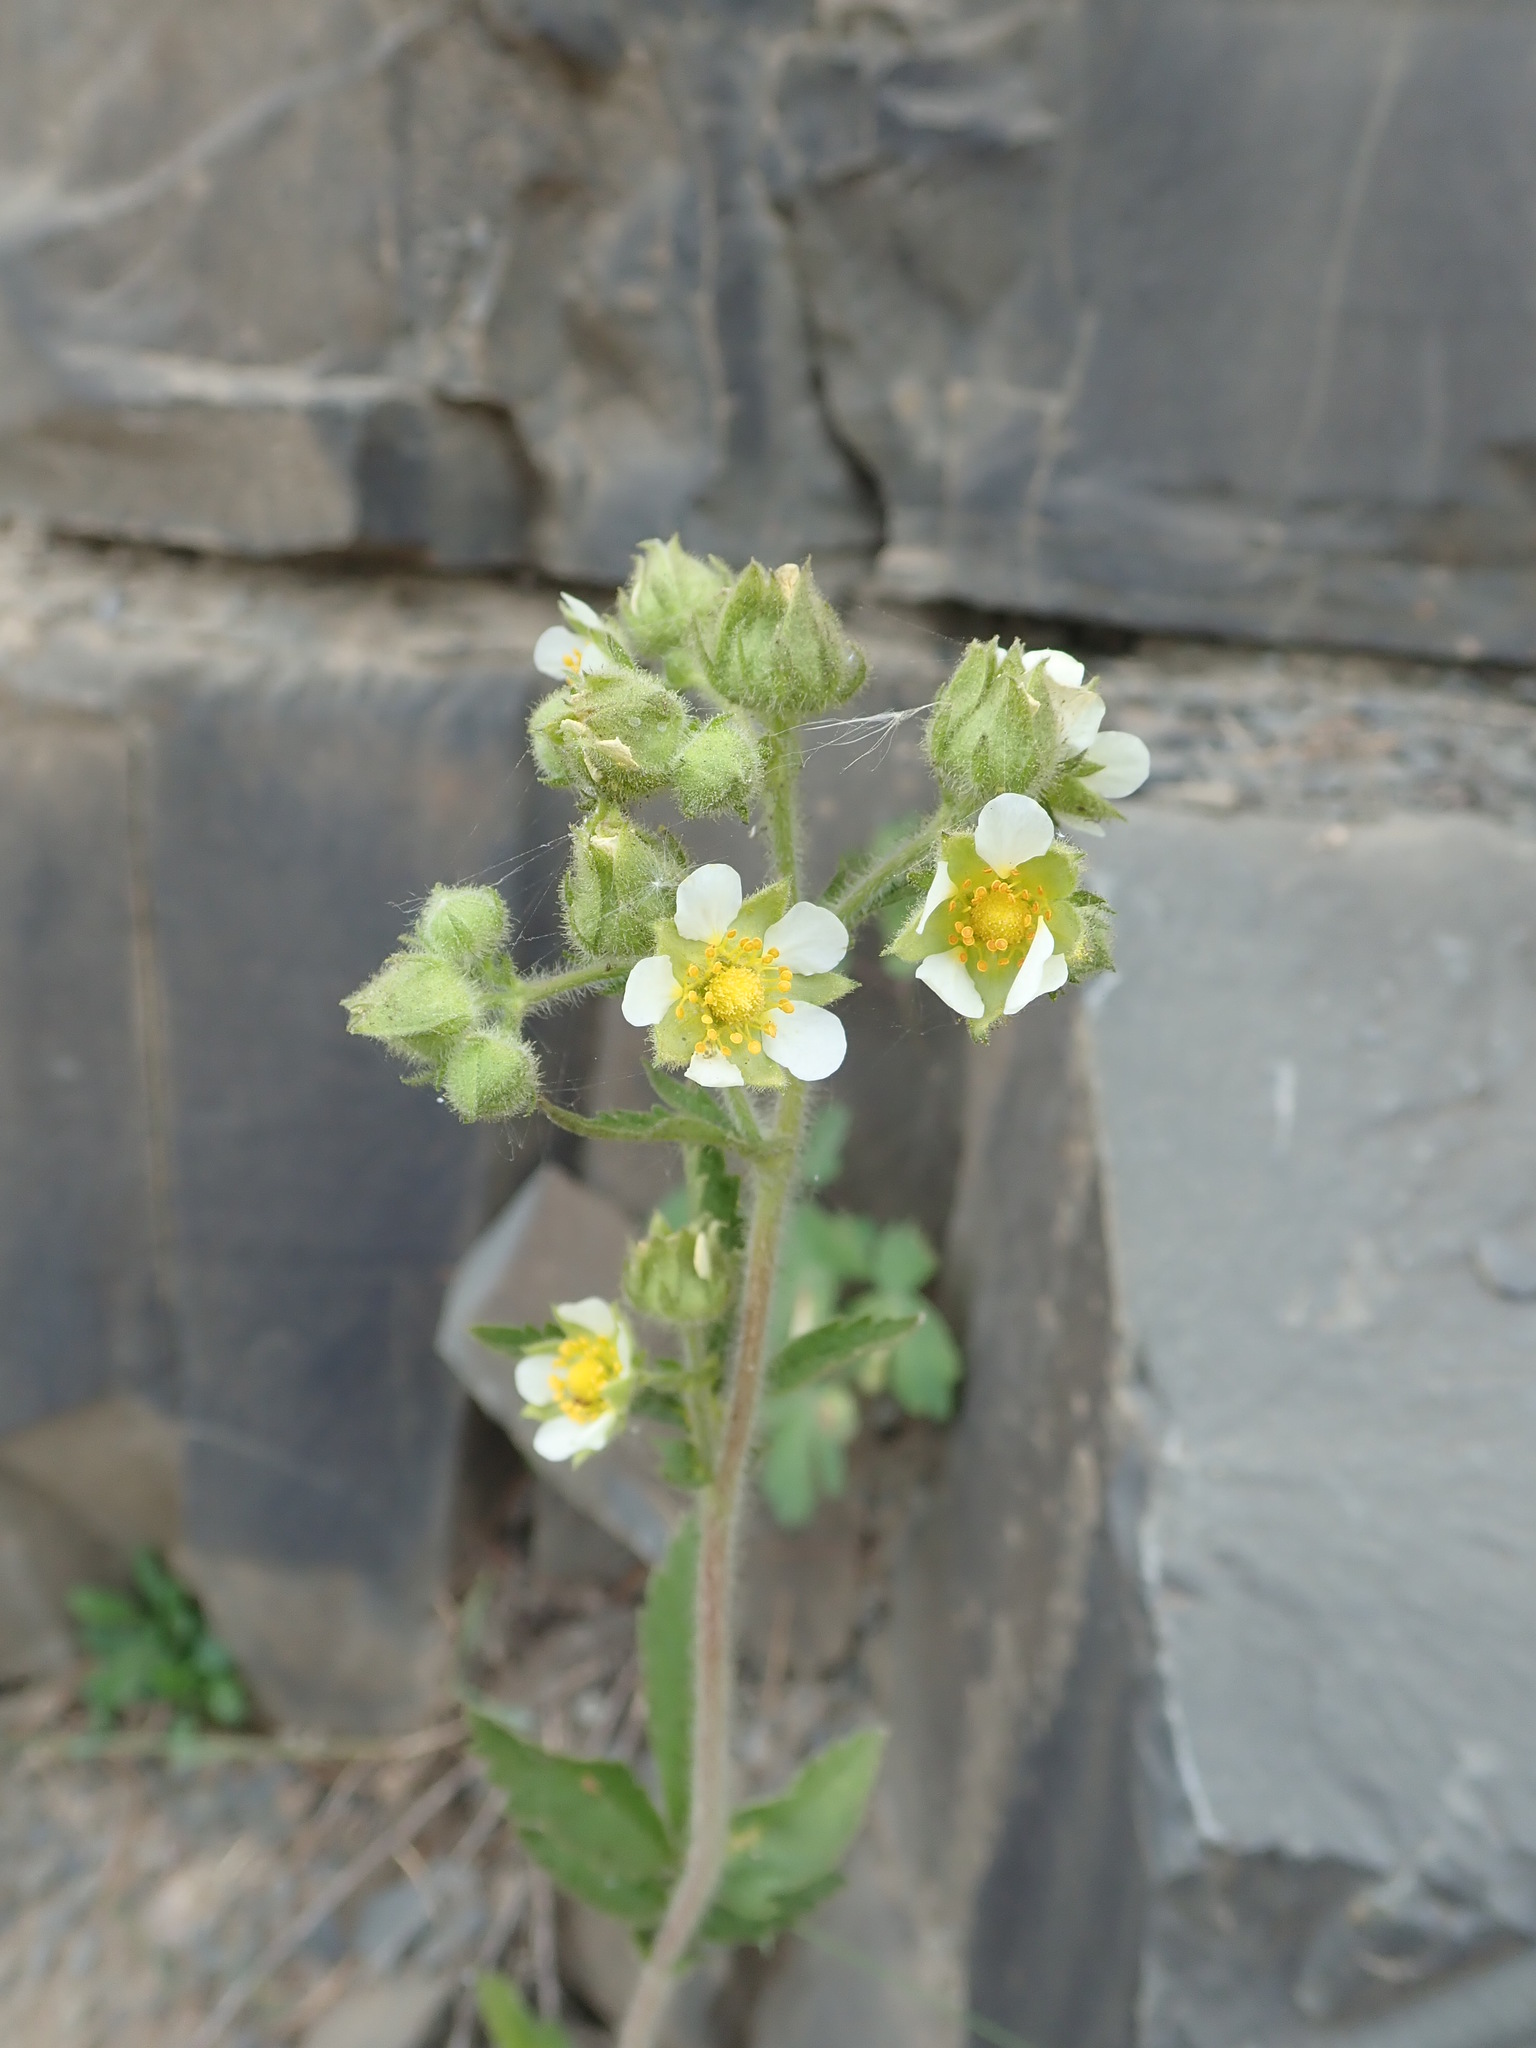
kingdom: Plantae
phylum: Tracheophyta
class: Magnoliopsida
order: Rosales
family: Rosaceae
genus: Drymocallis
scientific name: Drymocallis arguta
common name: Tall cinquefoil
